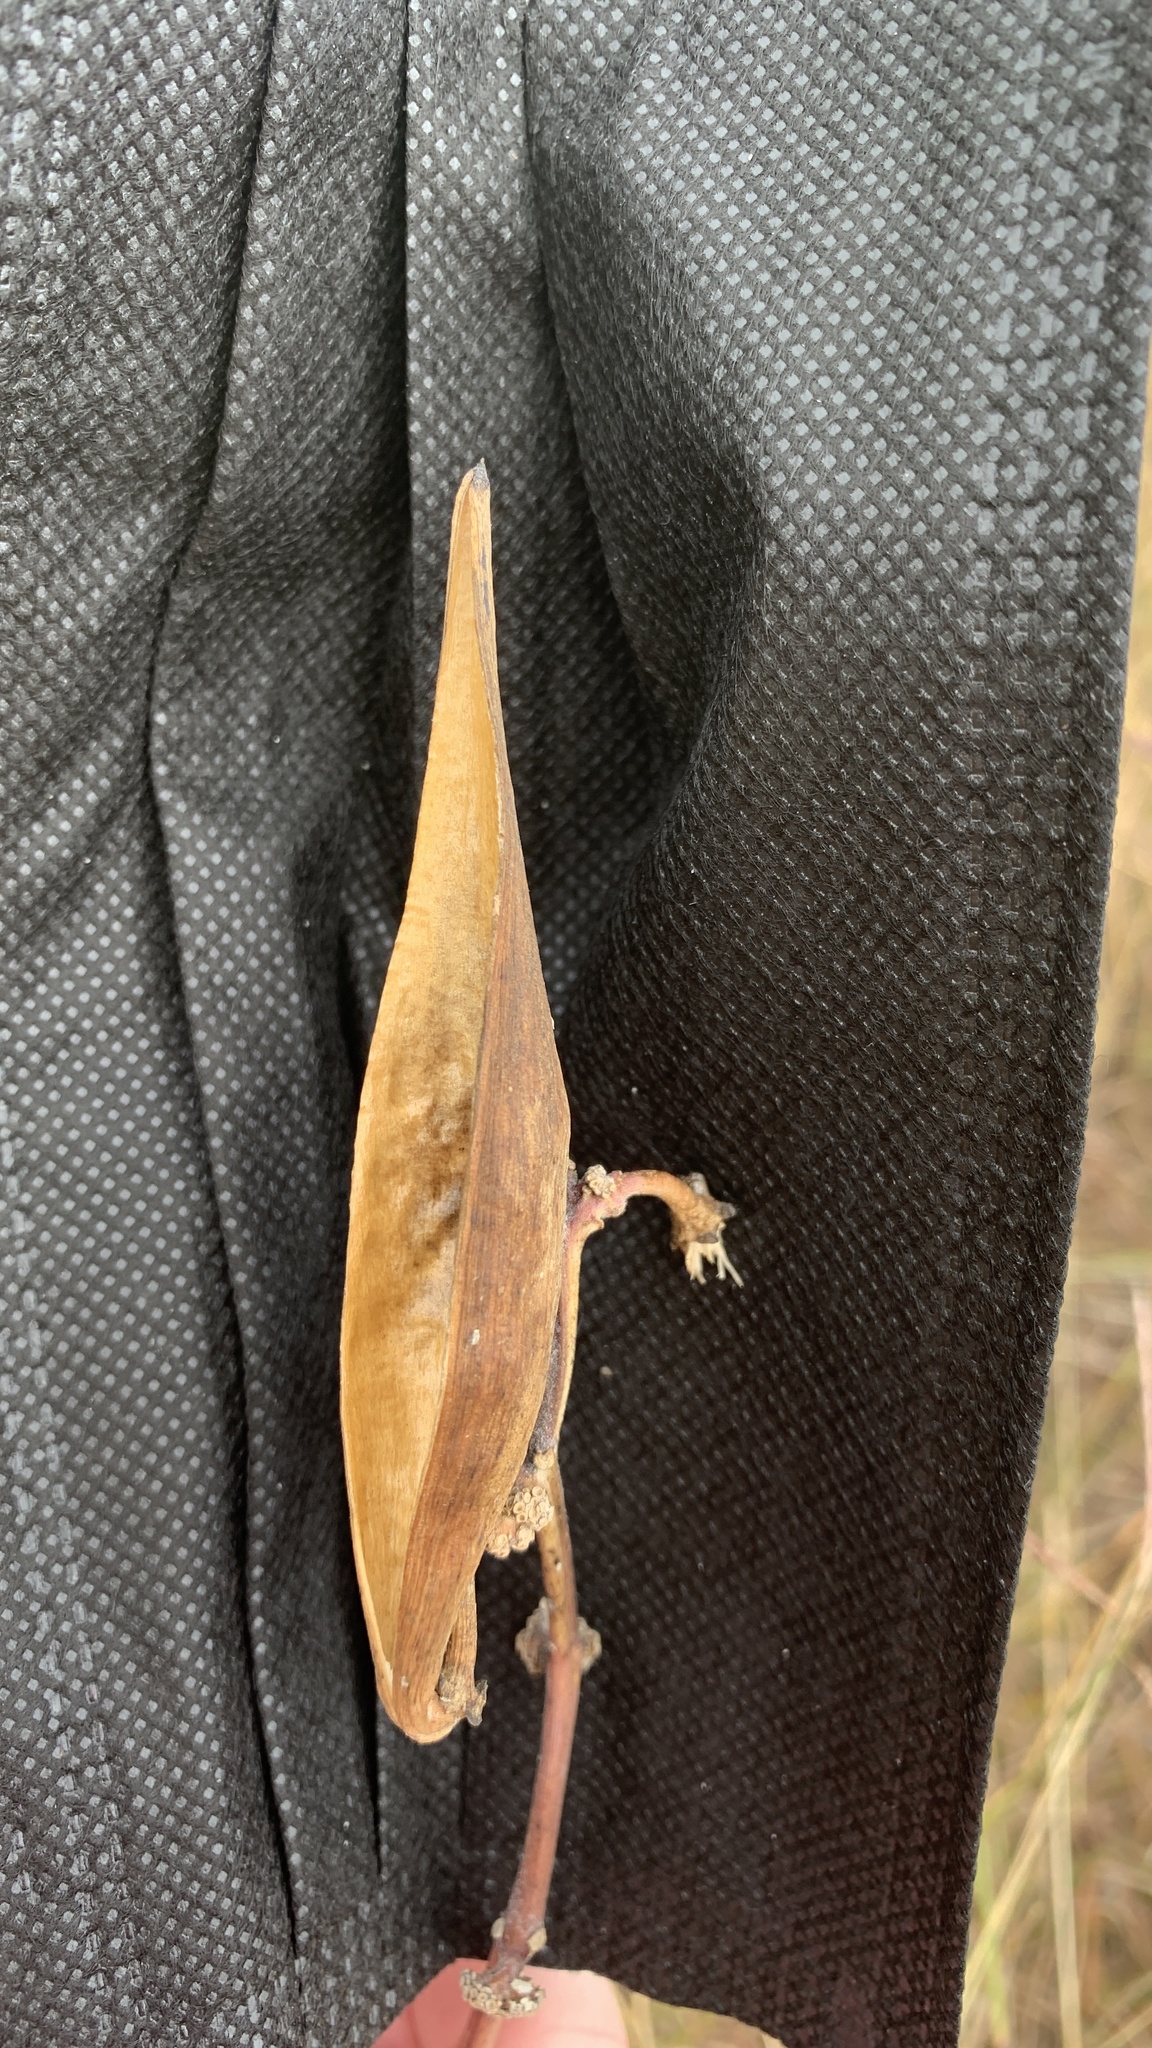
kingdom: Plantae
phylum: Tracheophyta
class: Magnoliopsida
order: Gentianales
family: Apocynaceae
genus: Asclepias
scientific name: Asclepias viridiflora
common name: Green comet milkweed
